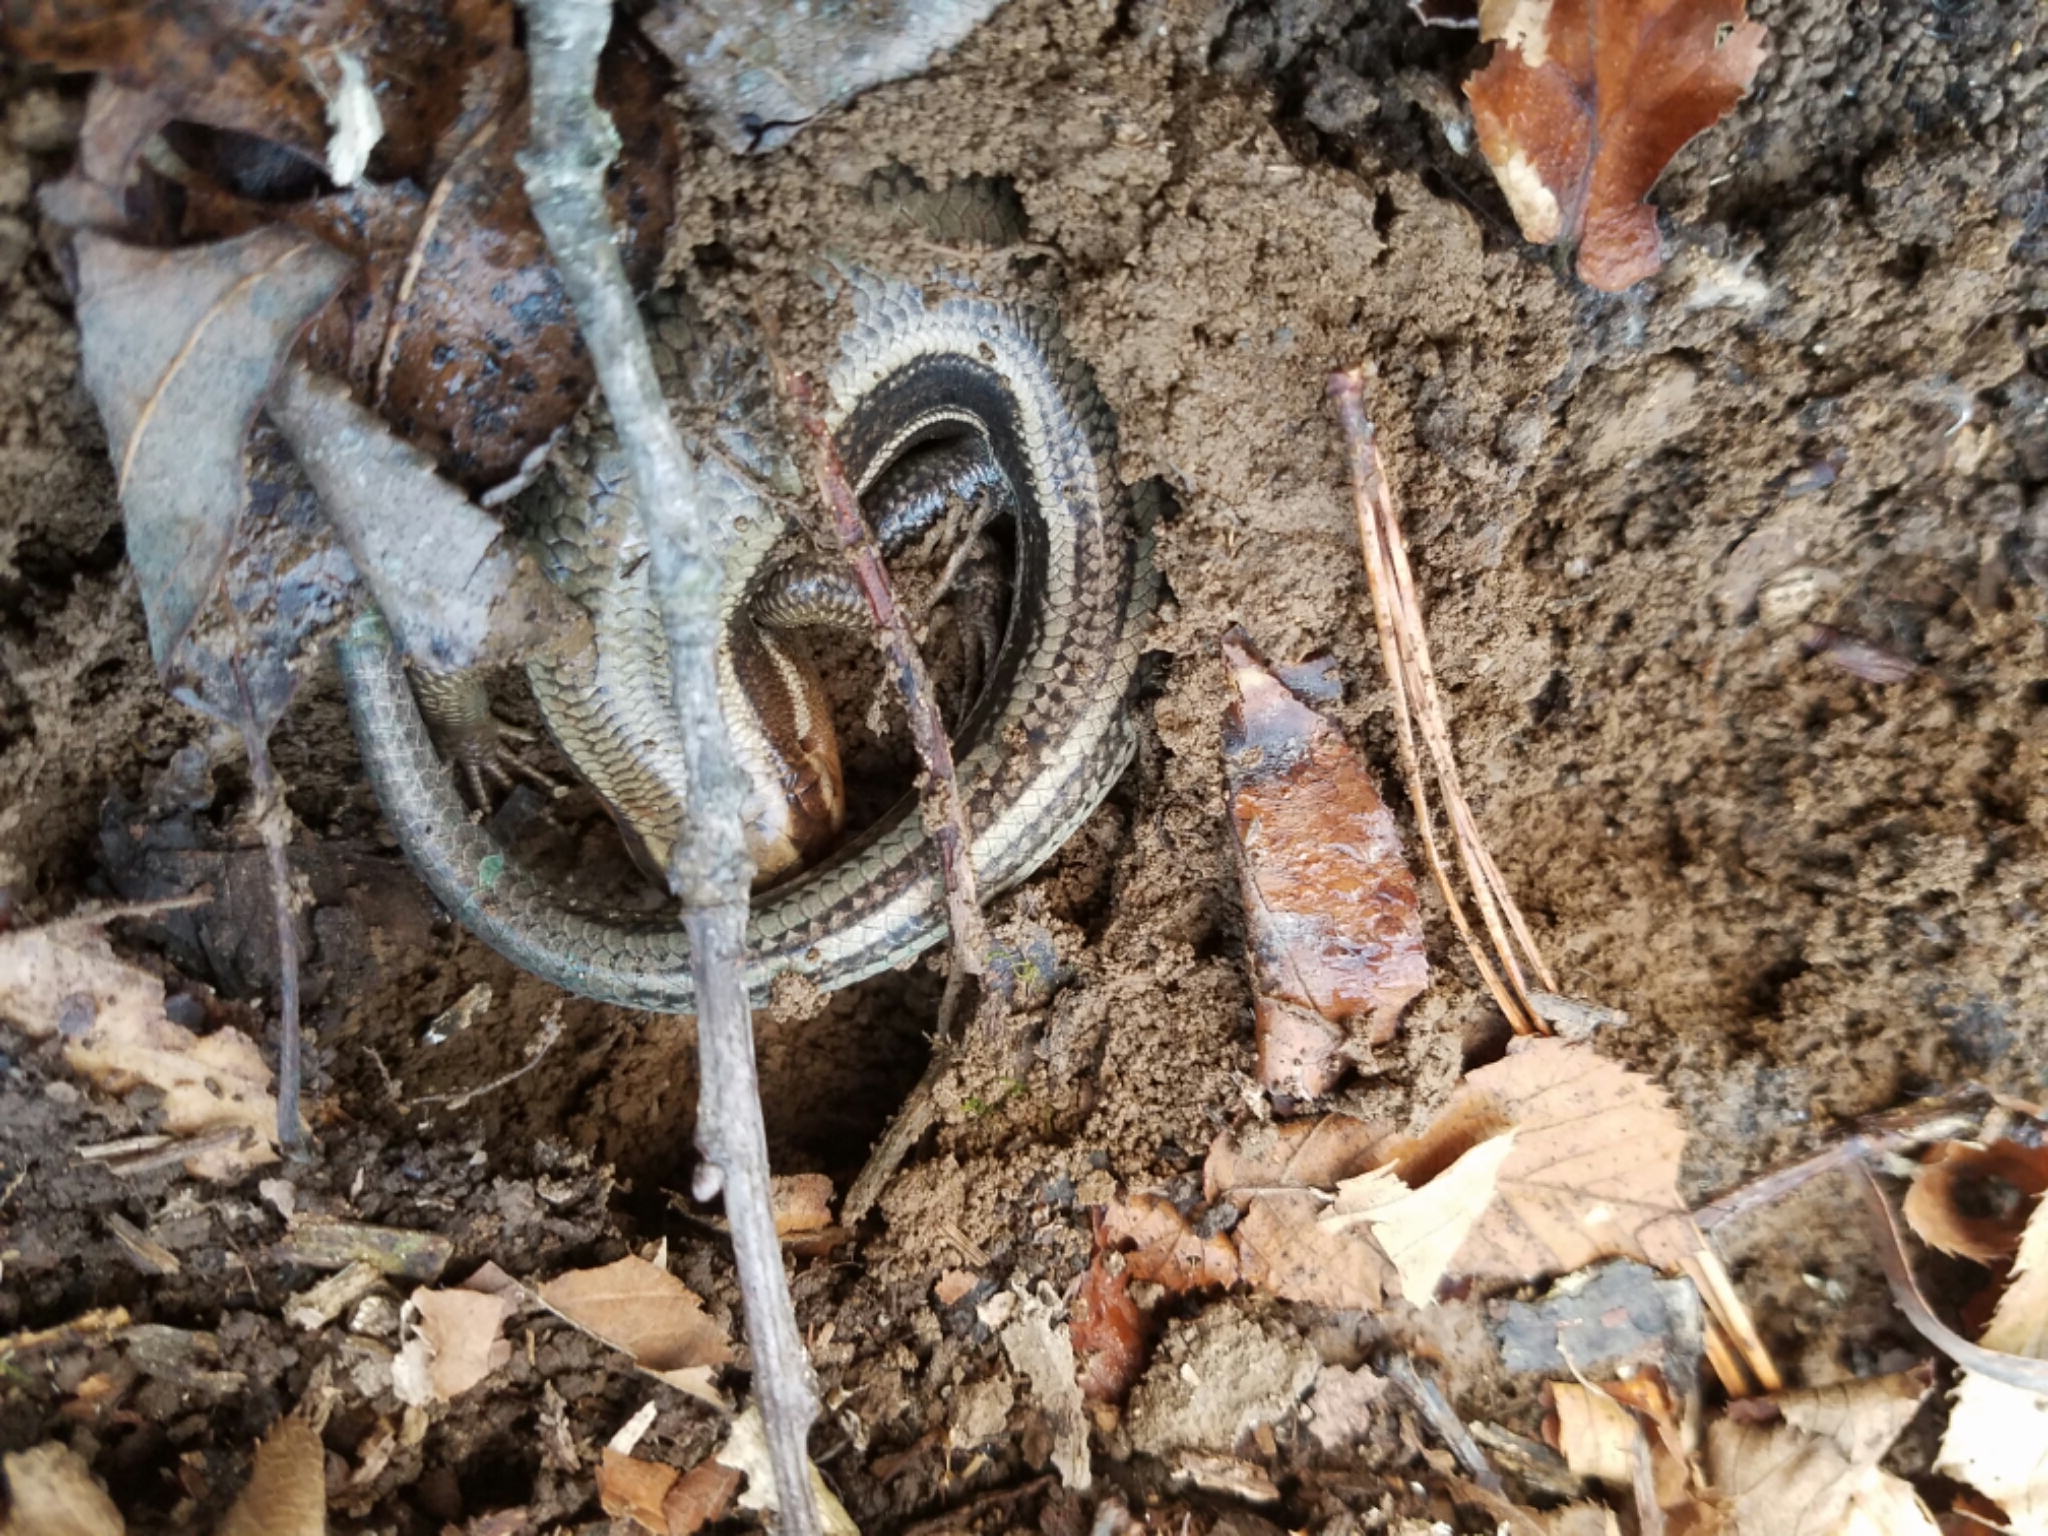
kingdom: Animalia
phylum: Chordata
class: Squamata
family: Scincidae
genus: Plestiodon
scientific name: Plestiodon
